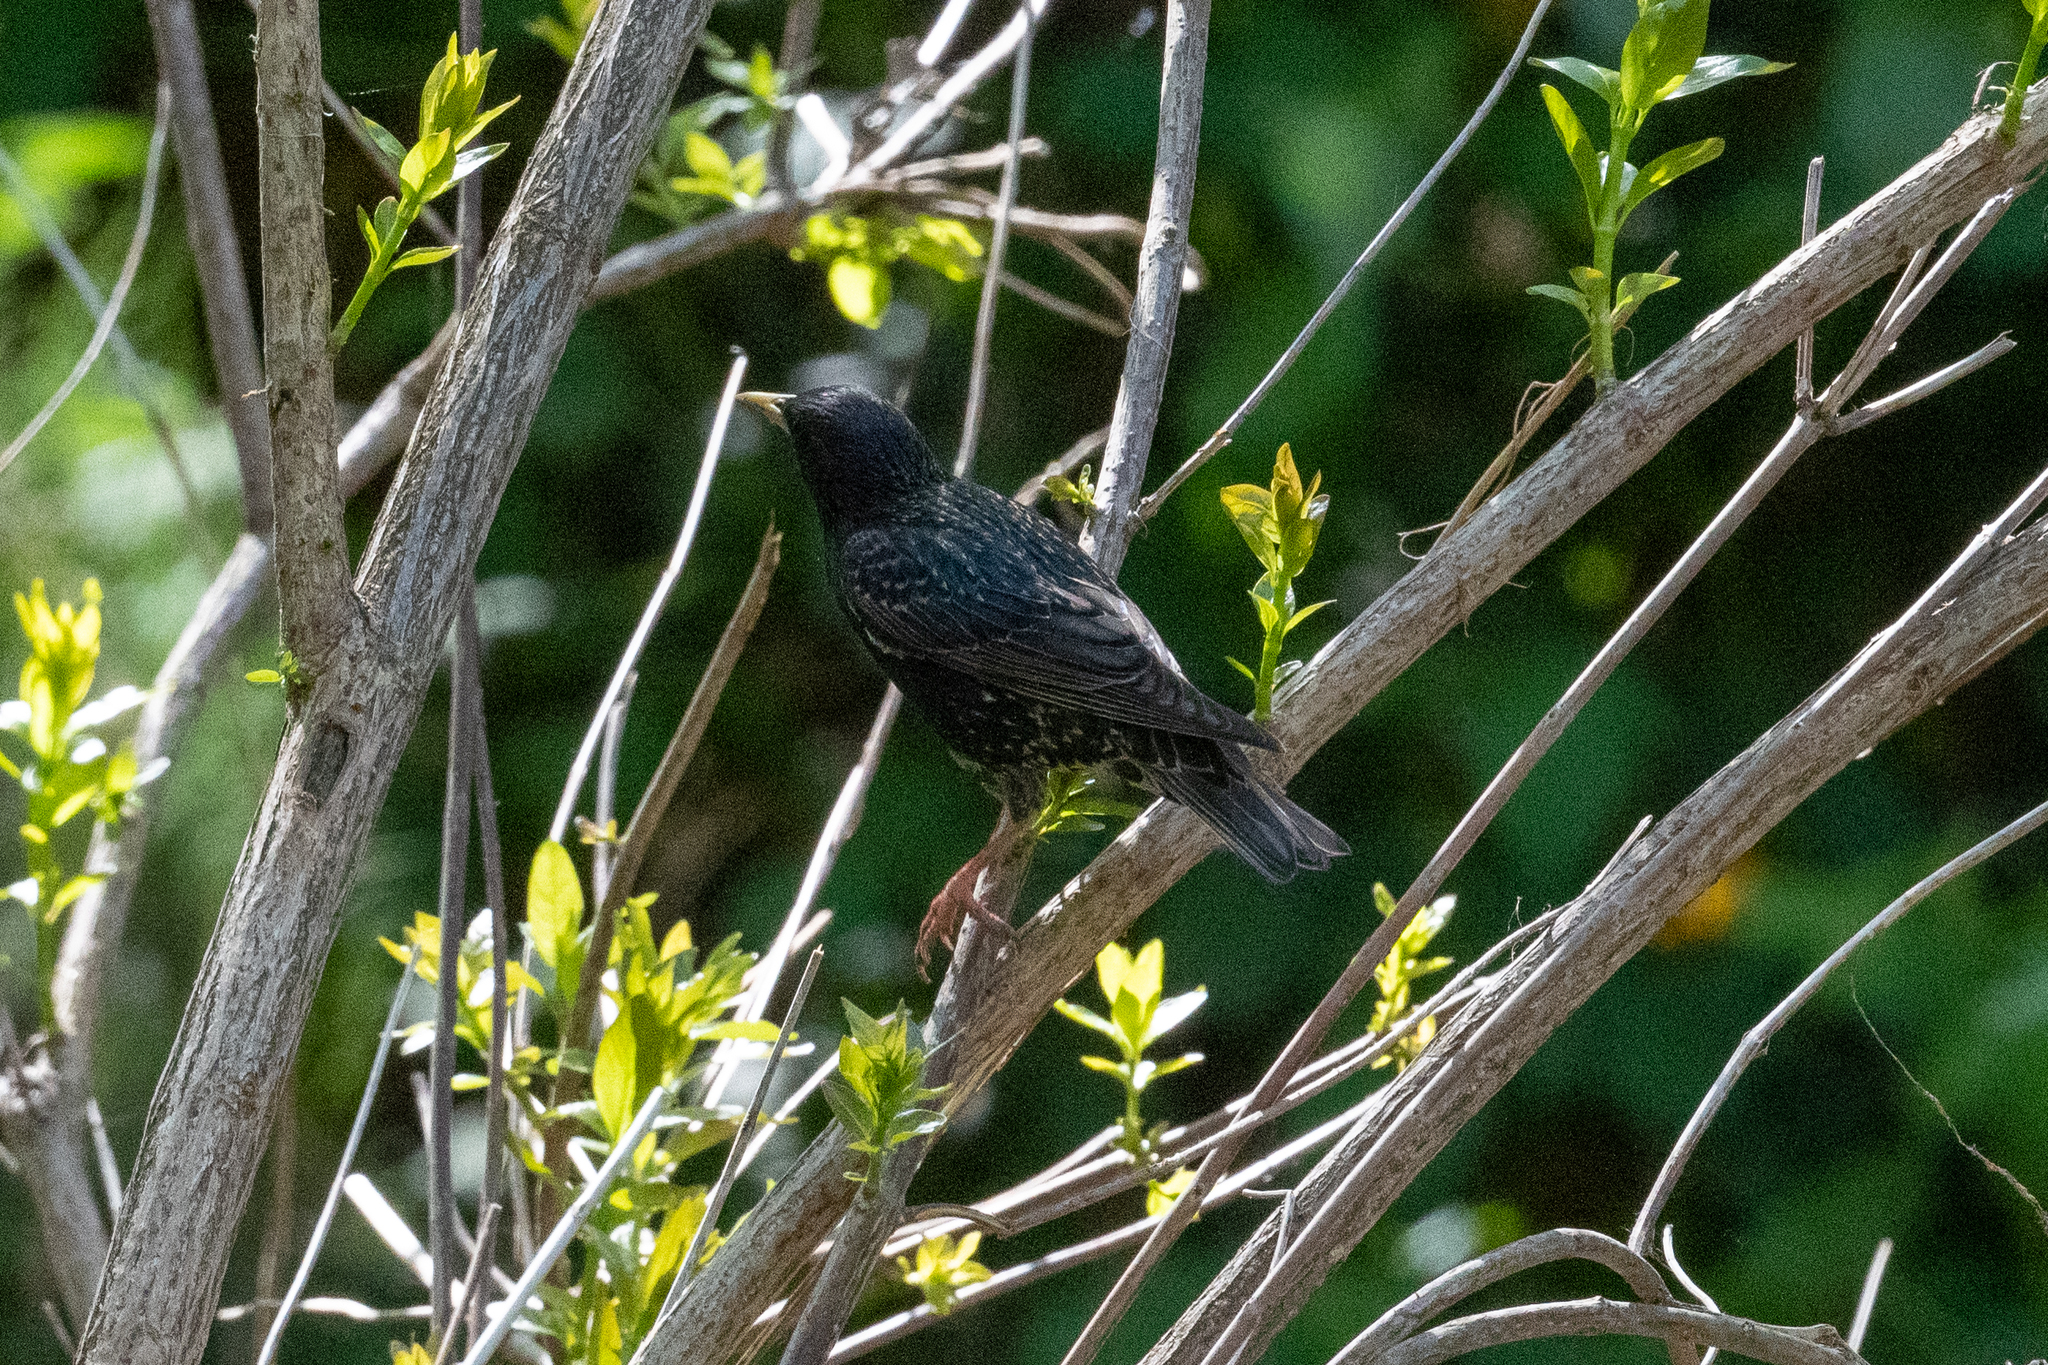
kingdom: Animalia
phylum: Chordata
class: Aves
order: Passeriformes
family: Sturnidae
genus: Sturnus
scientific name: Sturnus vulgaris
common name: Common starling
